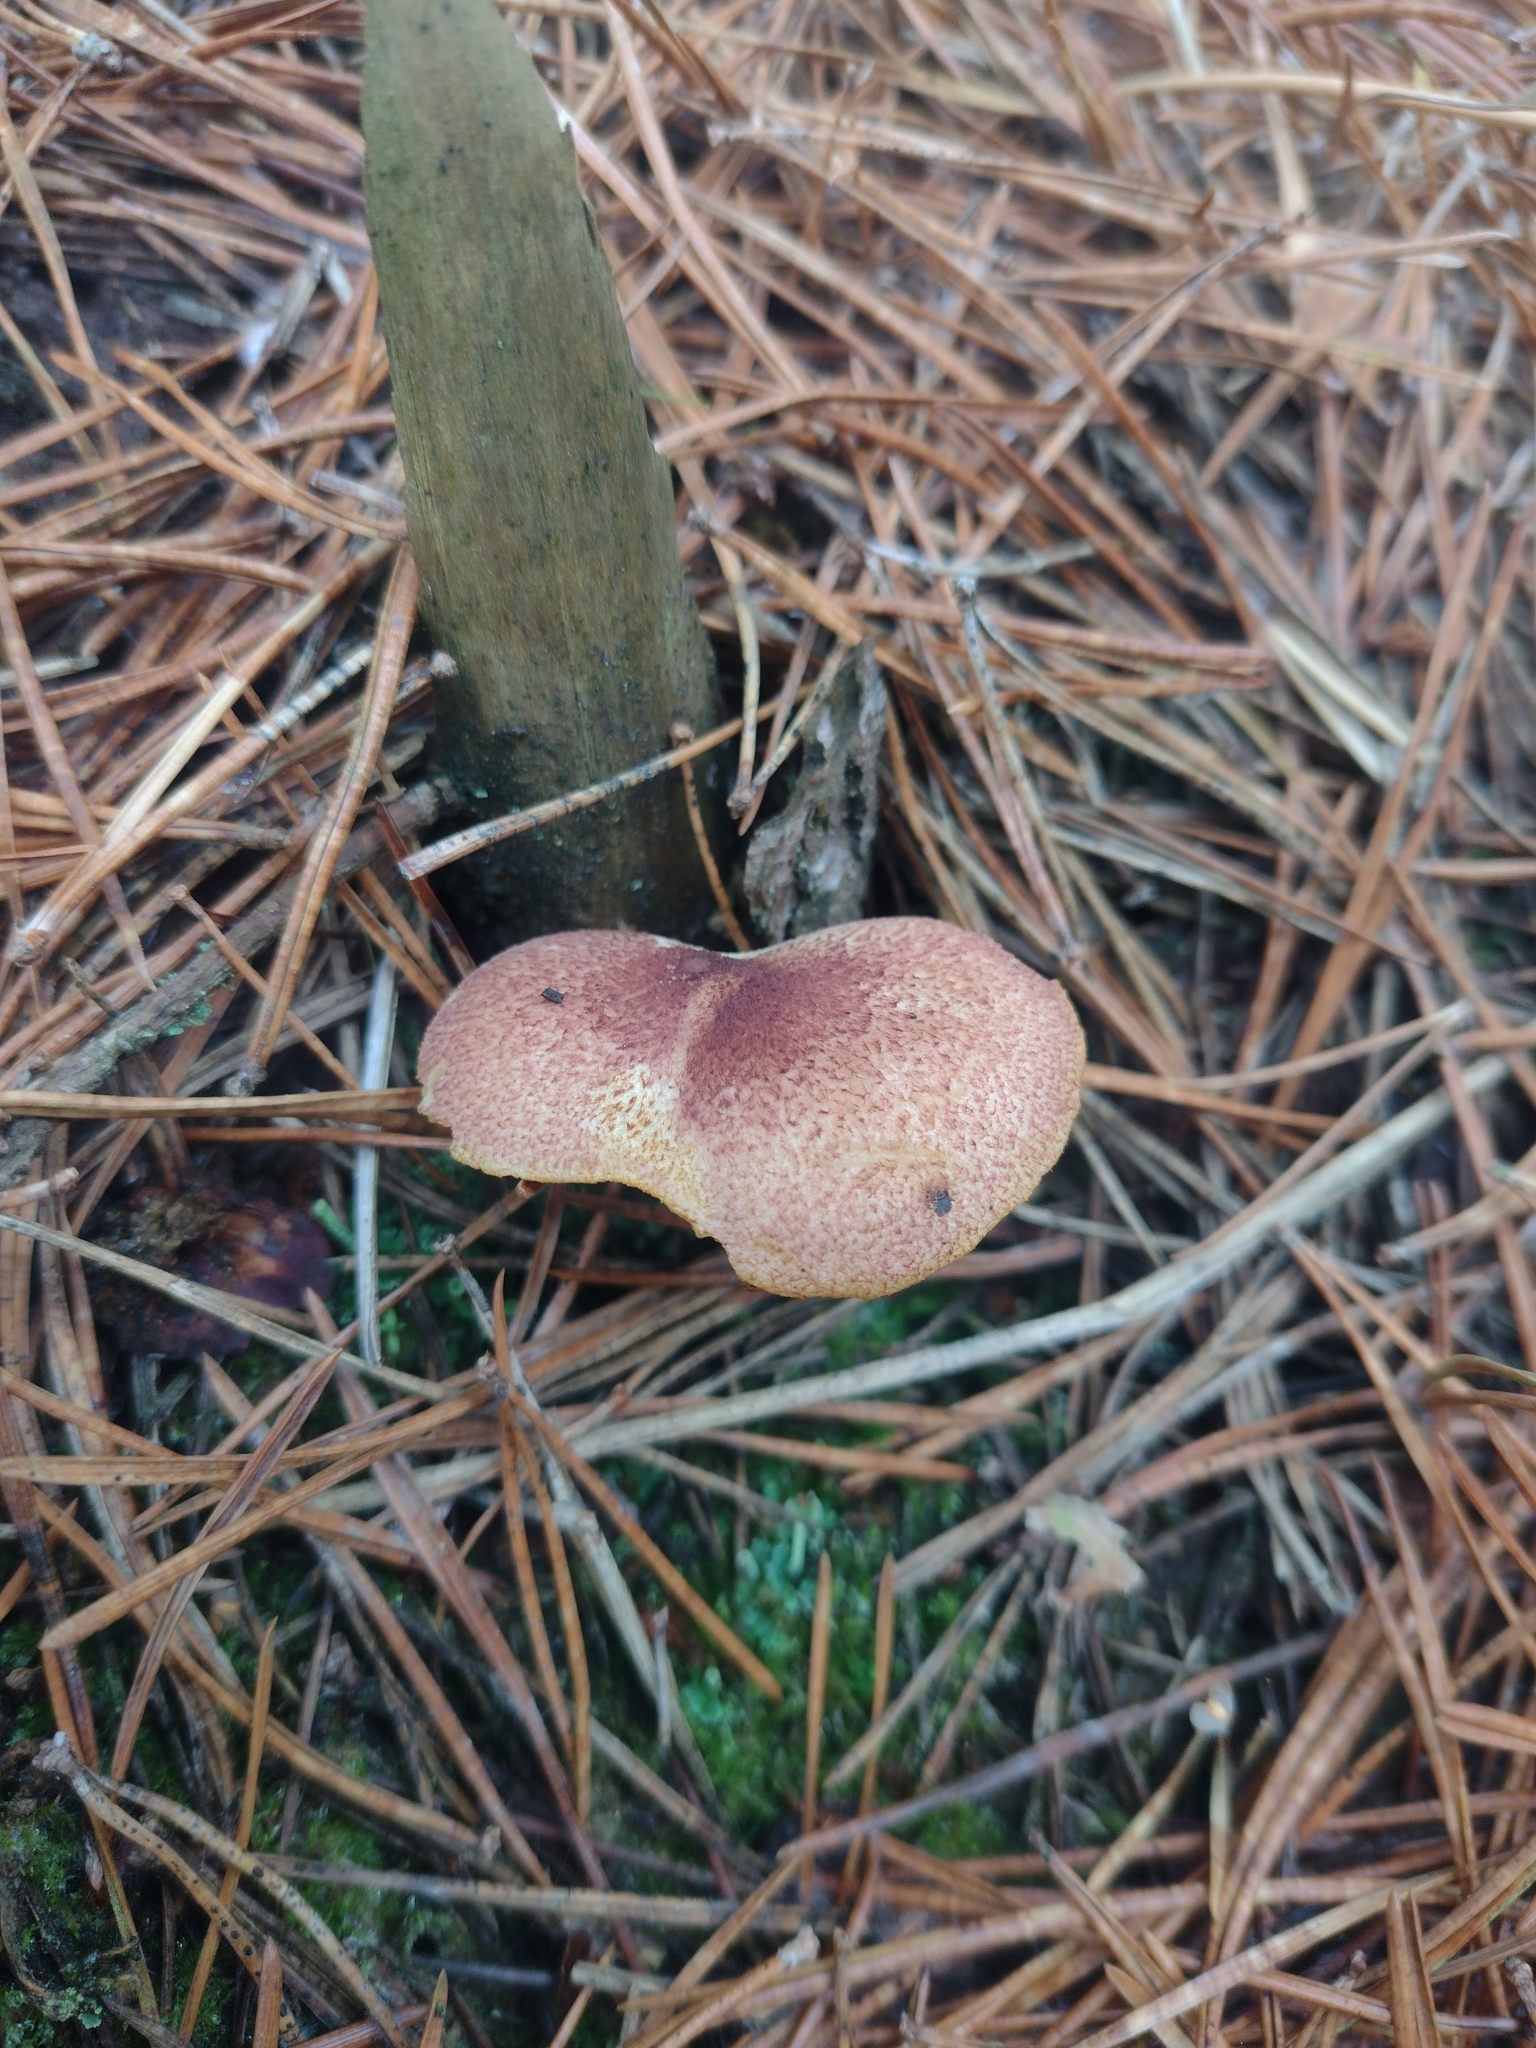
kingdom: Fungi
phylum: Basidiomycota
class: Agaricomycetes
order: Agaricales
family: Tricholomataceae
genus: Tricholomopsis
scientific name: Tricholomopsis rutilans
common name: Plums and custard
